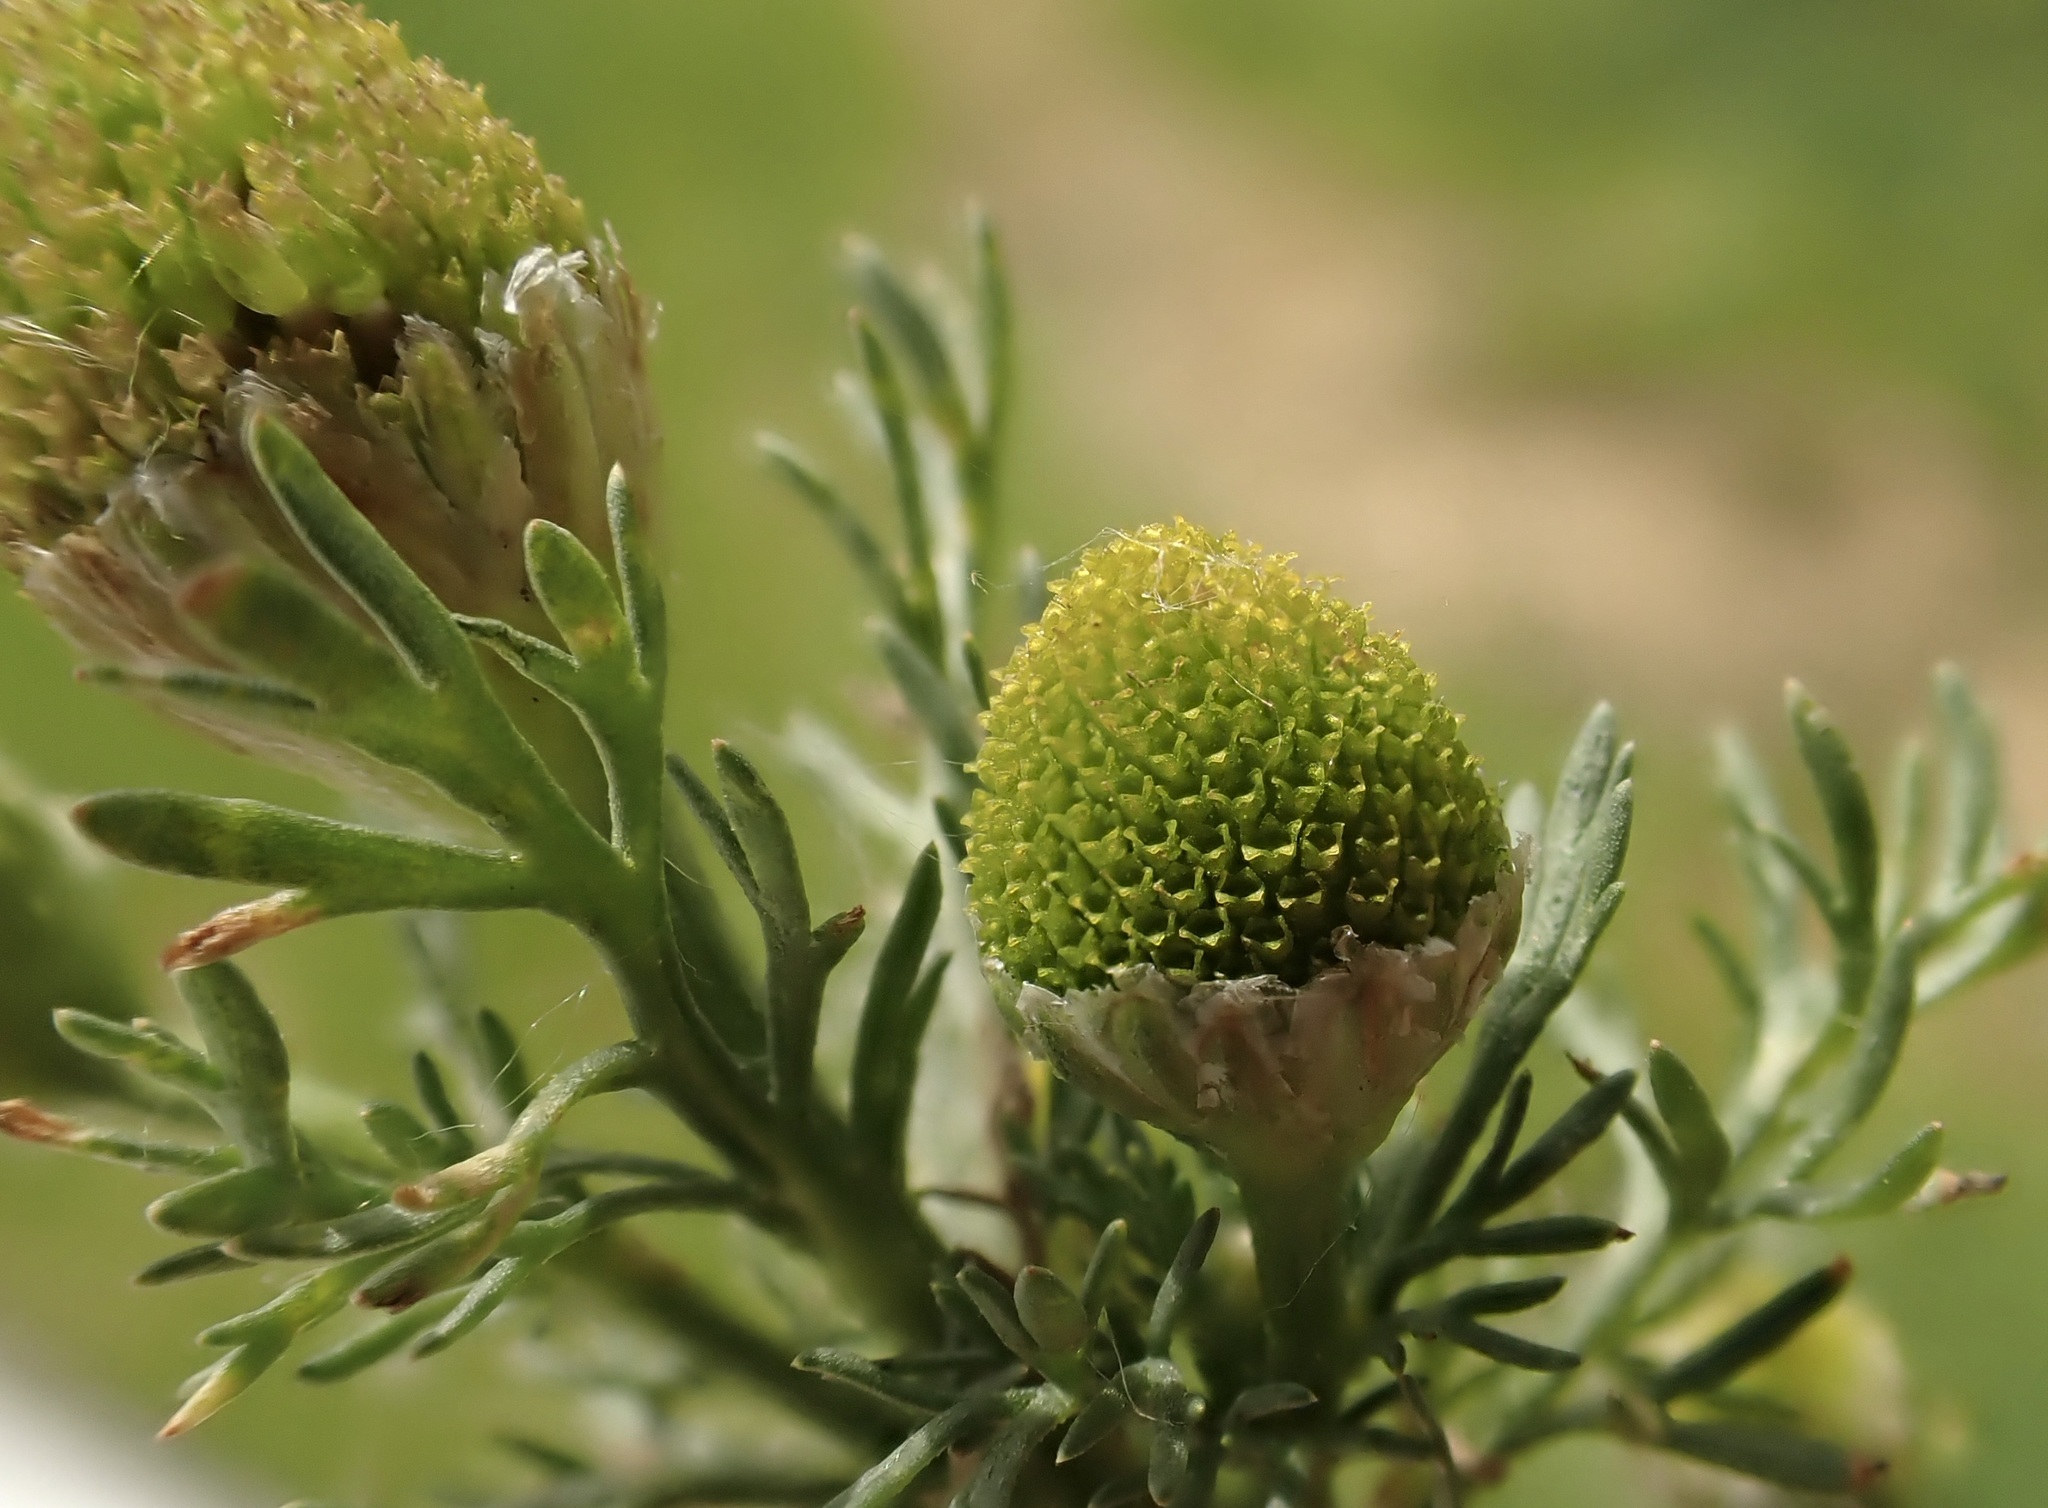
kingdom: Plantae
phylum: Tracheophyta
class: Magnoliopsida
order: Asterales
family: Asteraceae
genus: Matricaria
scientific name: Matricaria discoidea
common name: Disc mayweed
